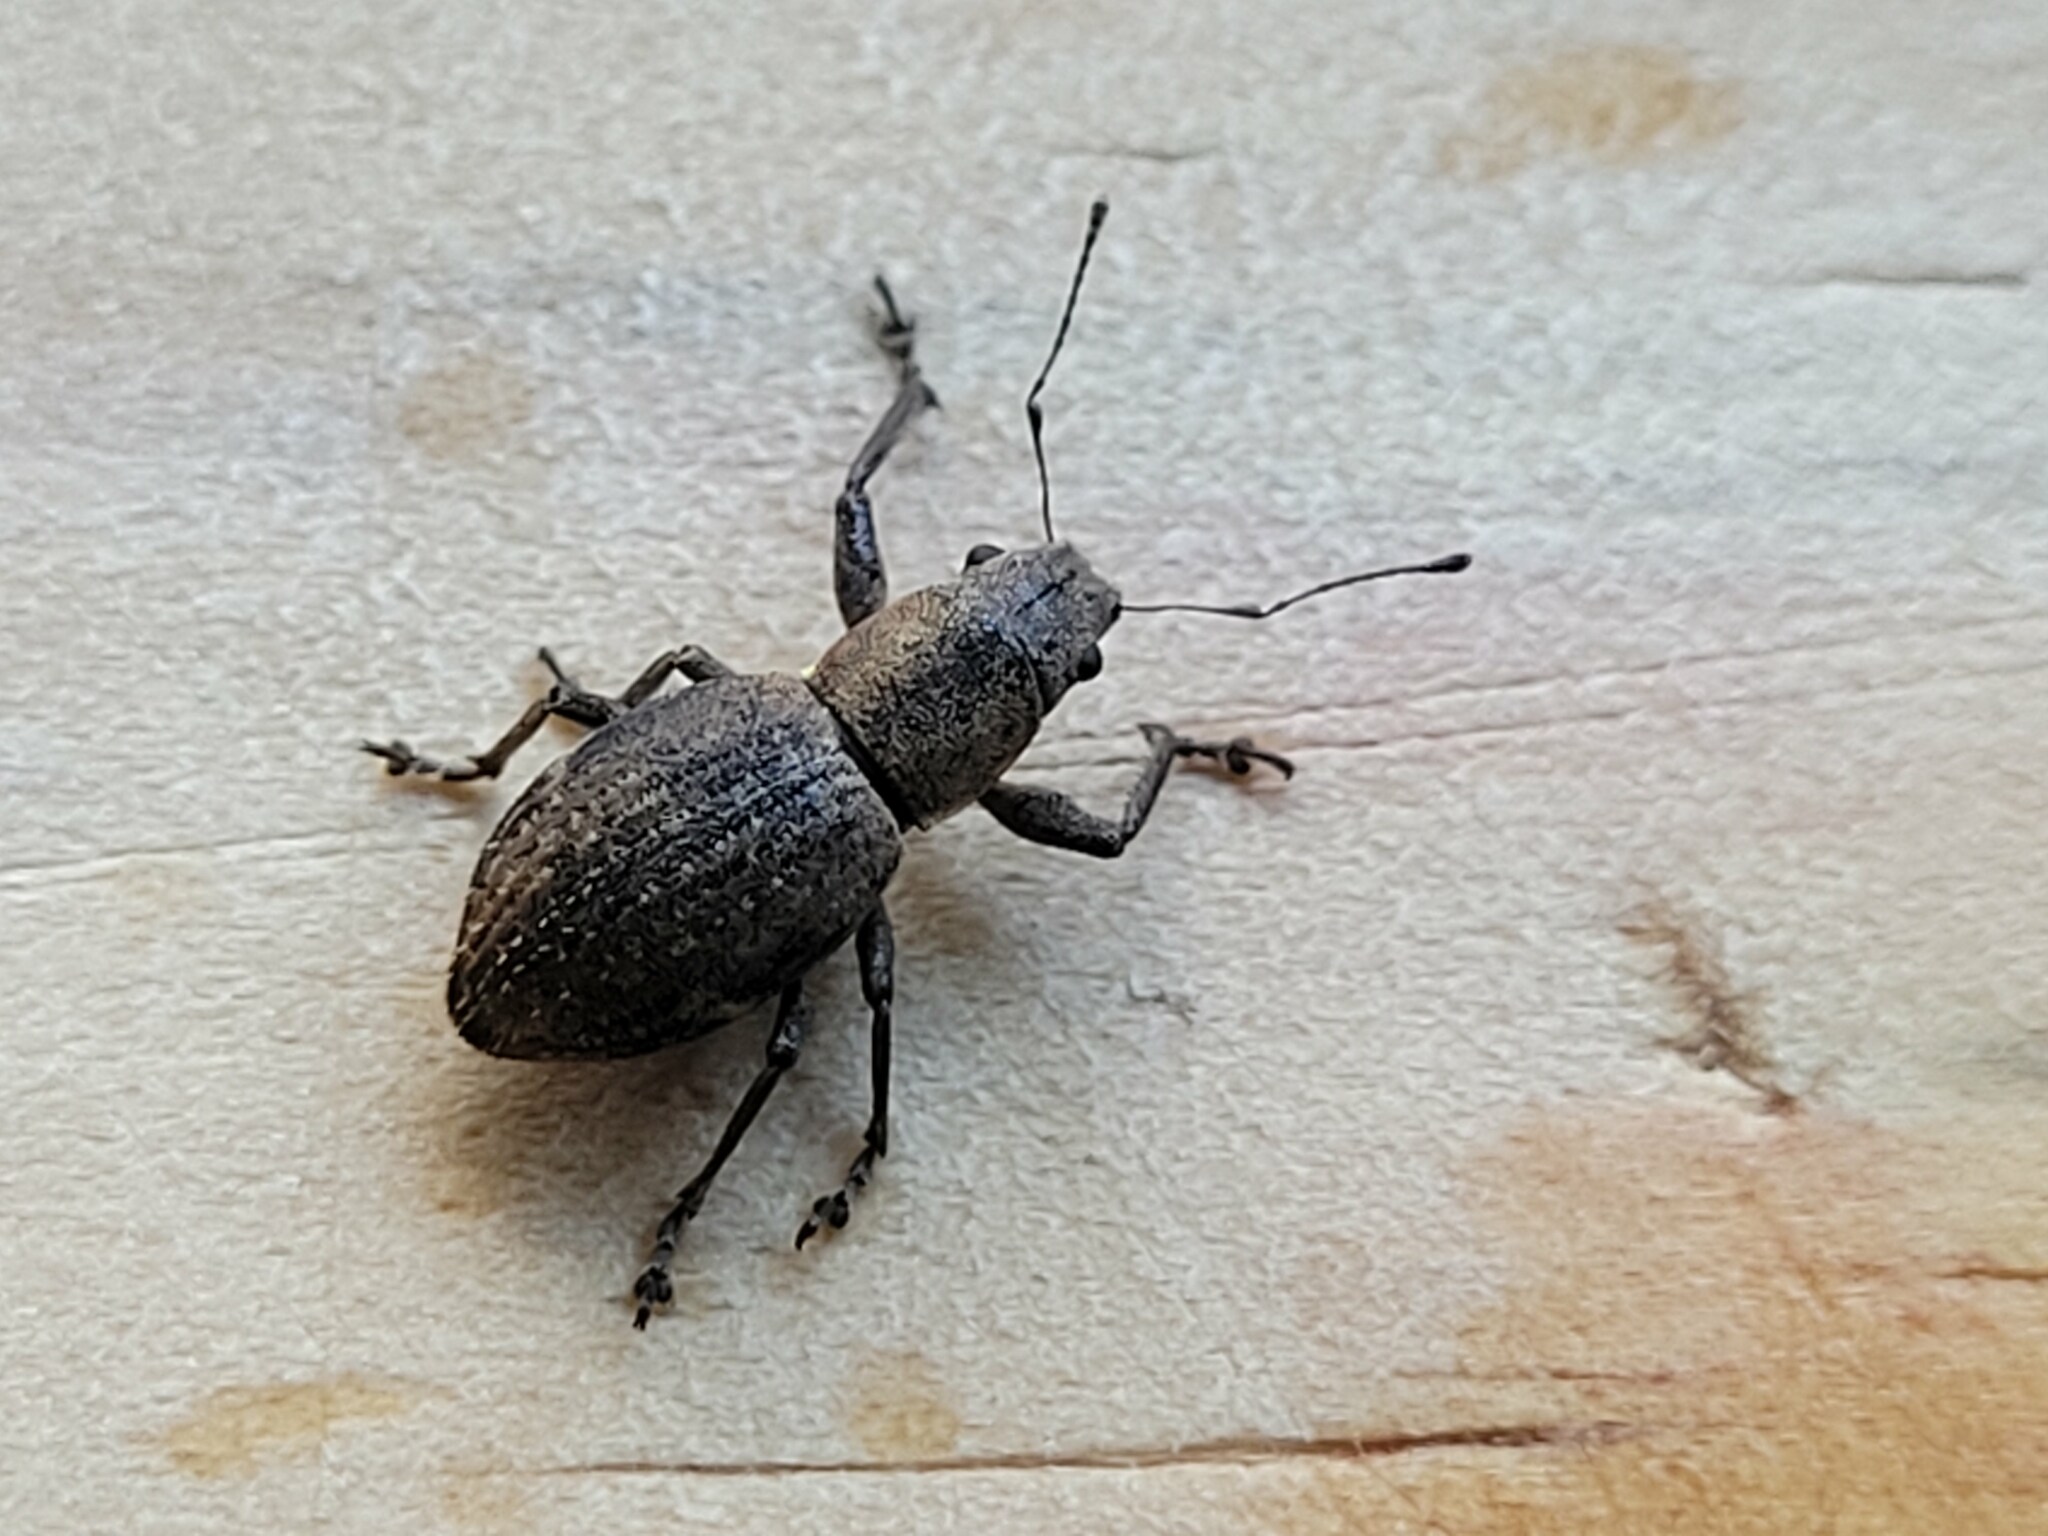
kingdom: Animalia
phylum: Arthropoda
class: Insecta
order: Coleoptera
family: Curculionidae
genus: Naupactus
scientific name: Naupactus cervinus
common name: Fuller rose beetle
